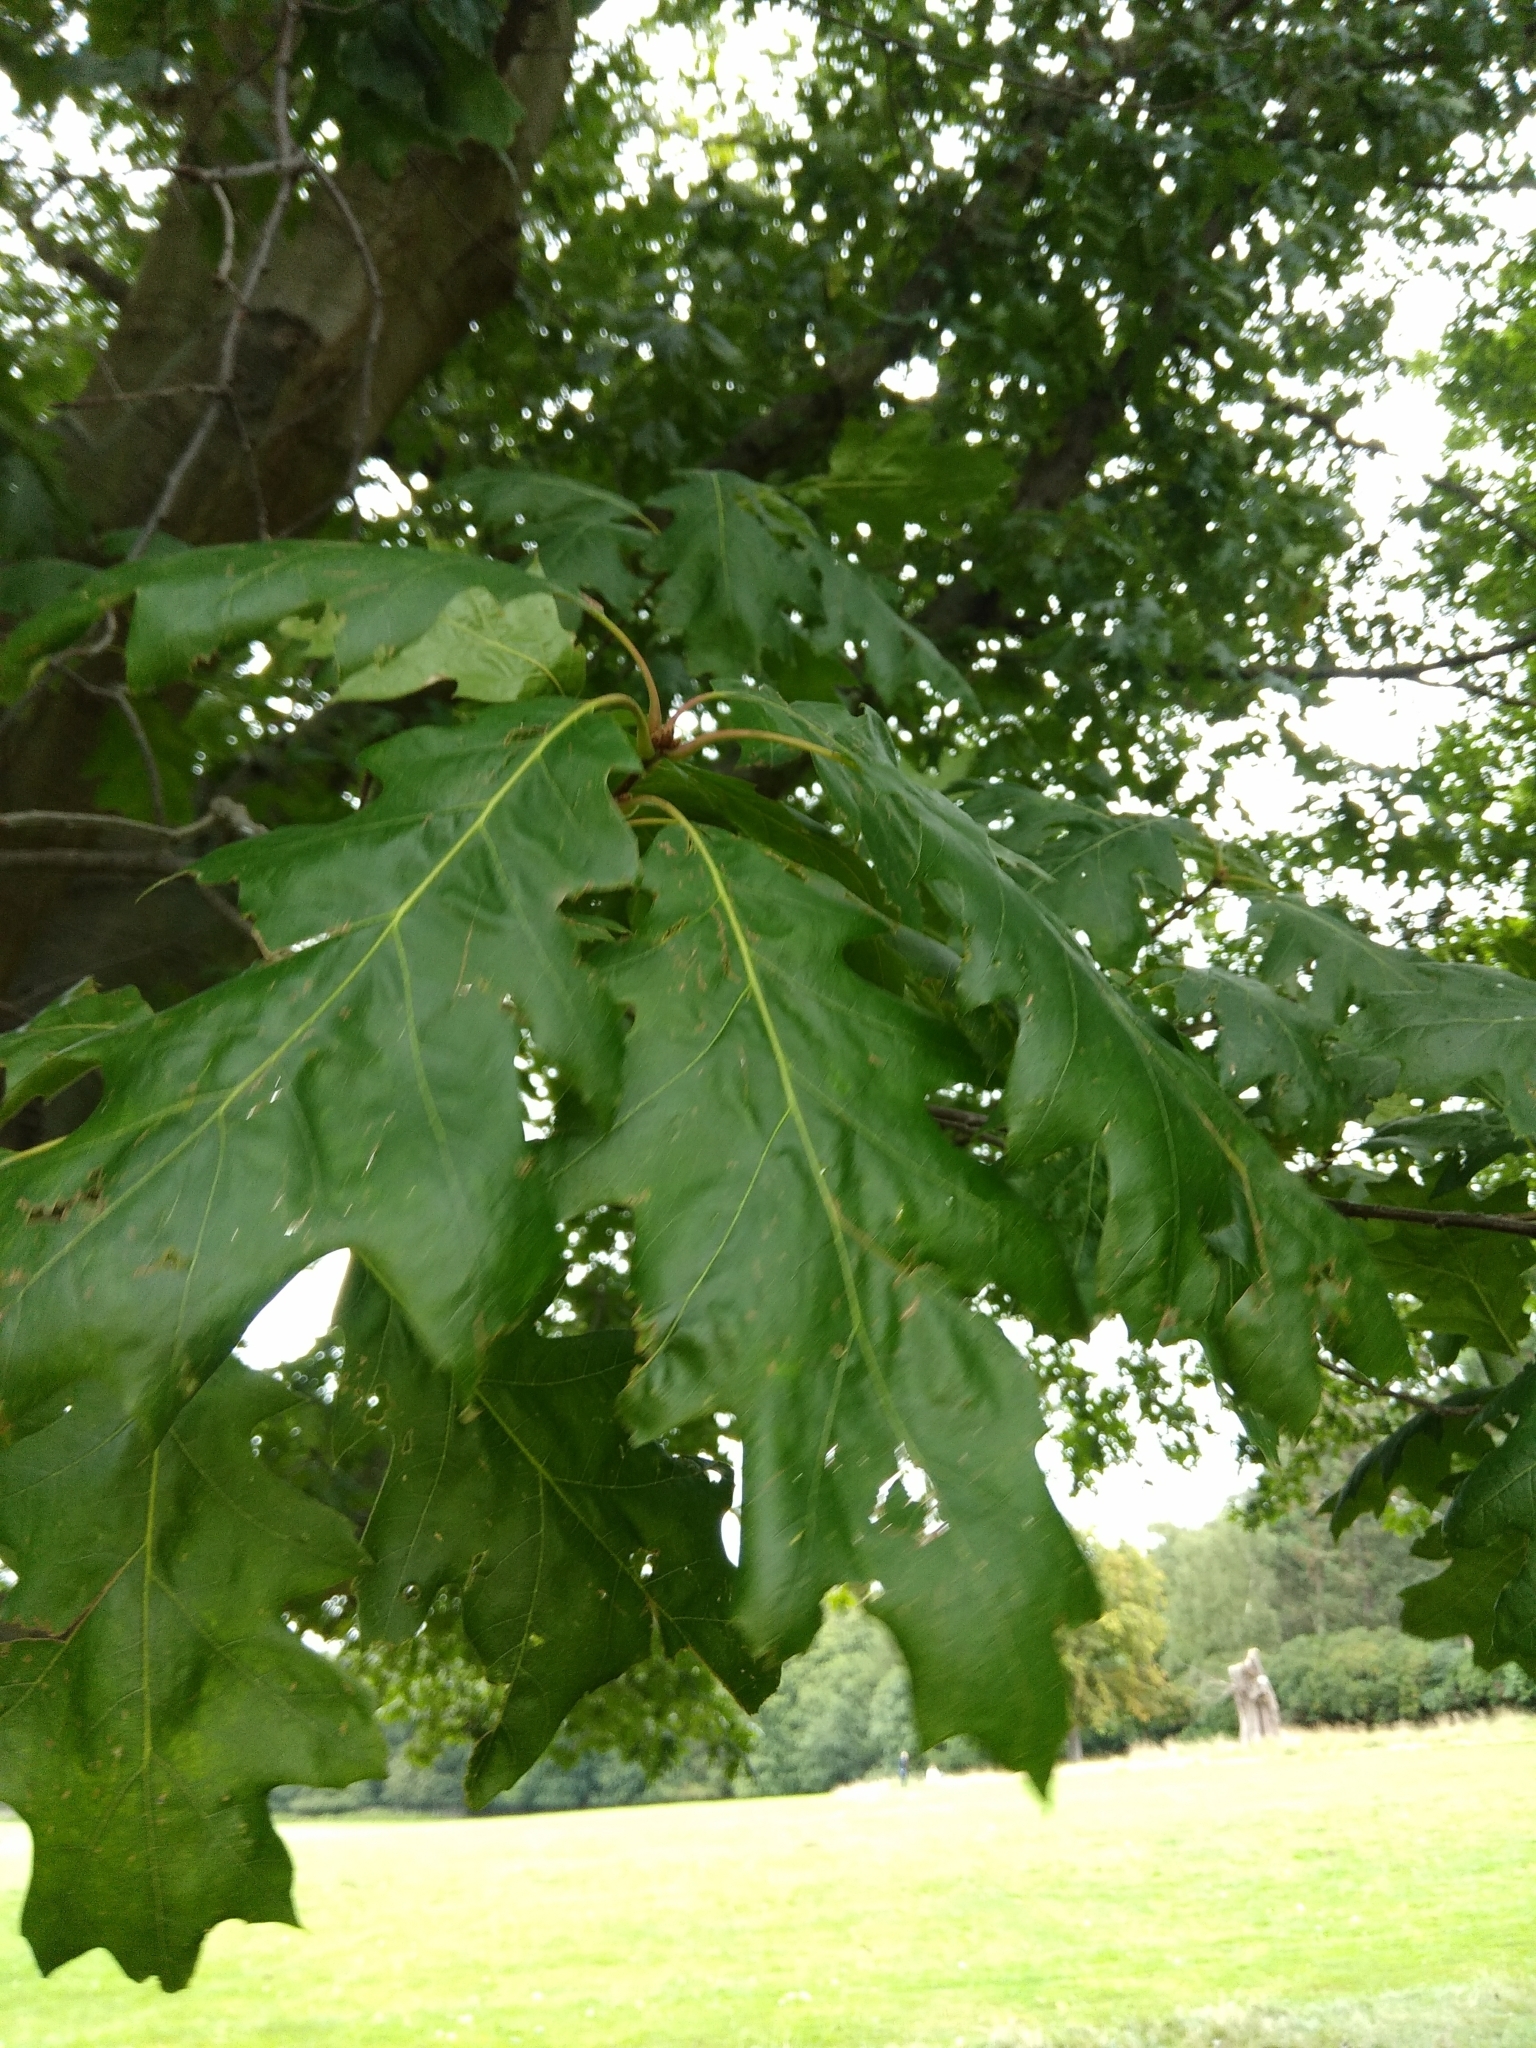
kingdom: Plantae
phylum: Tracheophyta
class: Magnoliopsida
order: Fagales
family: Fagaceae
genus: Quercus
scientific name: Quercus rubra
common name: Red oak
